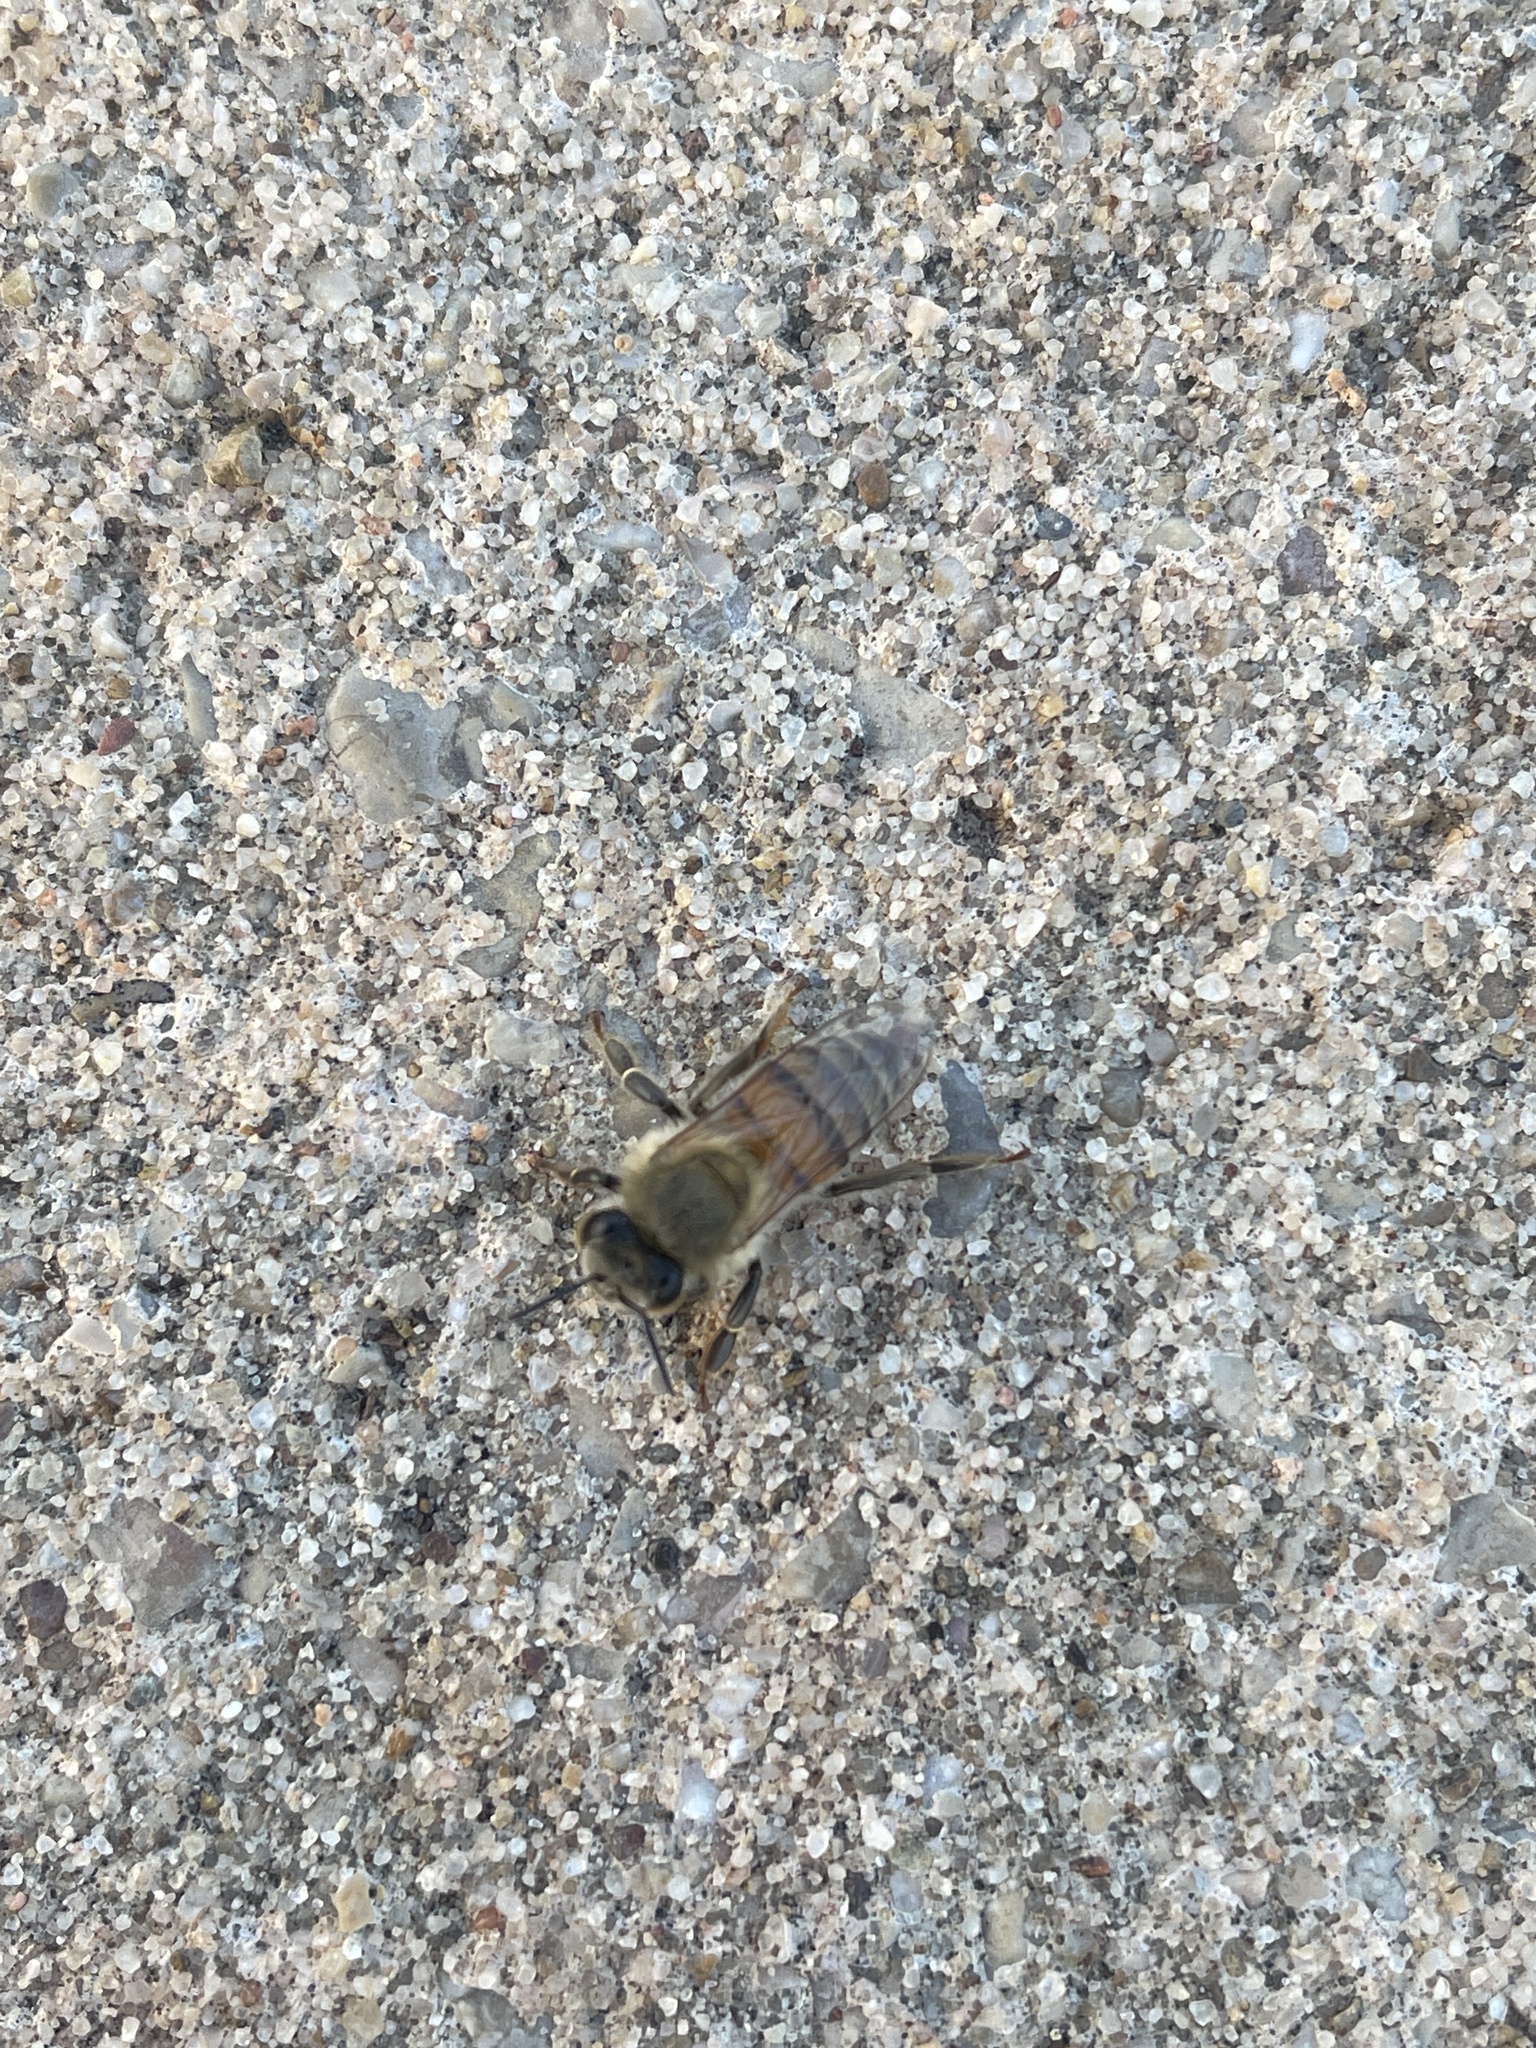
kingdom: Animalia
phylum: Arthropoda
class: Insecta
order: Hymenoptera
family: Apidae
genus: Apis
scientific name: Apis mellifera
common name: Honey bee
